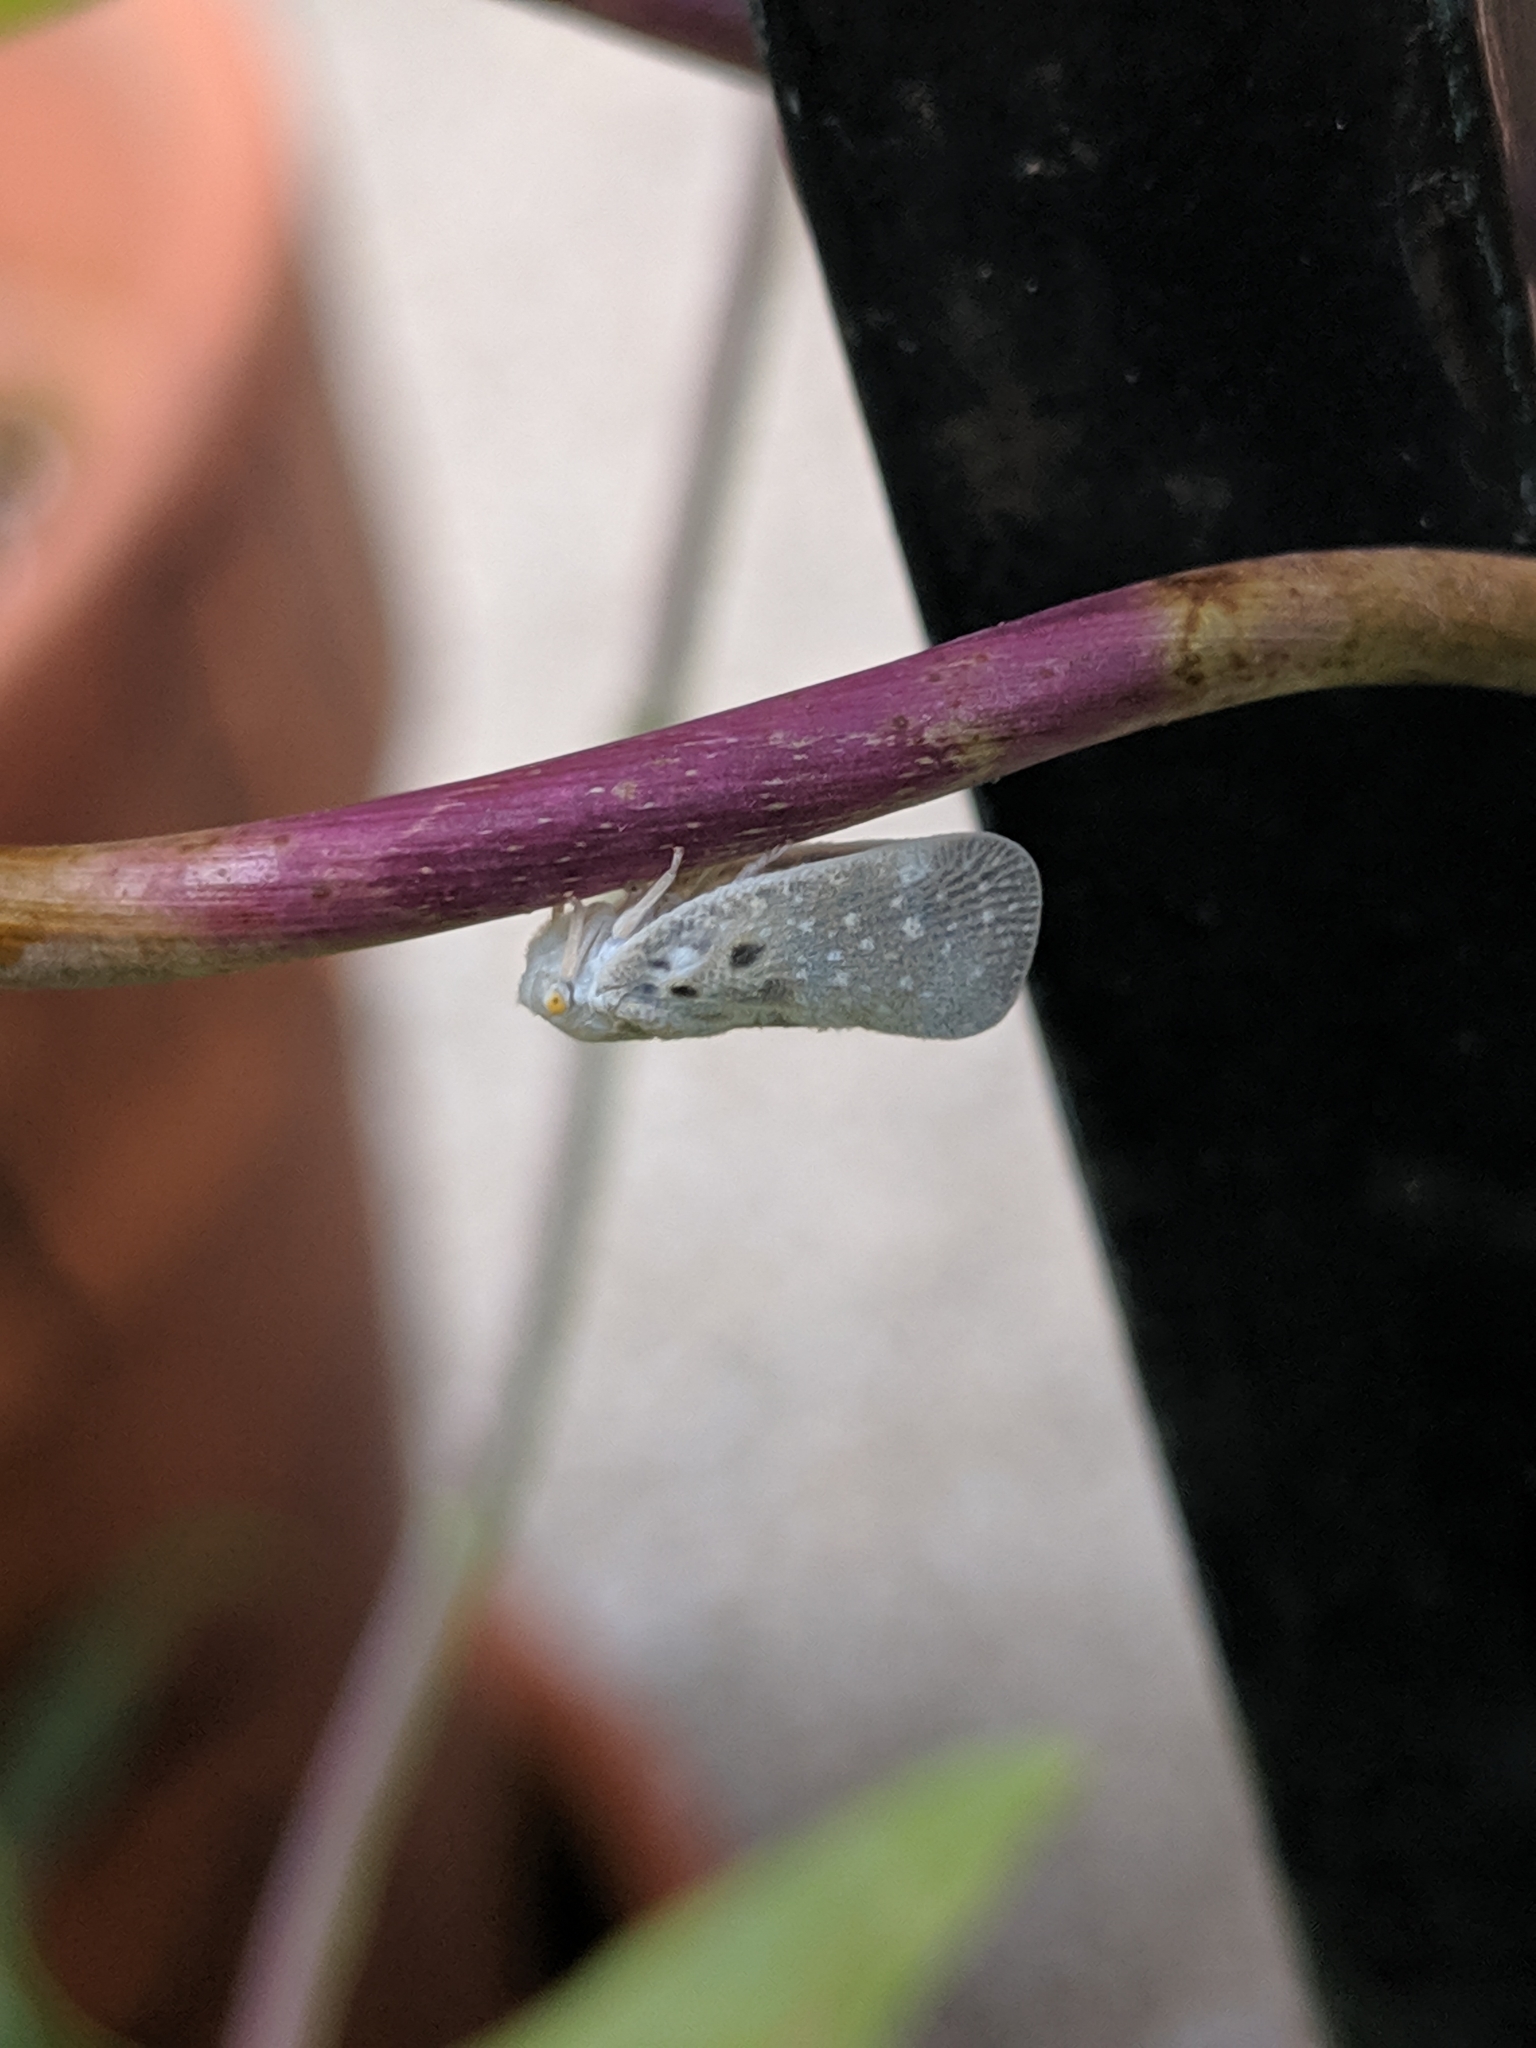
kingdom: Animalia
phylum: Arthropoda
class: Insecta
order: Hemiptera
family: Flatidae
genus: Metcalfa
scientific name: Metcalfa pruinosa
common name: Citrus flatid planthopper
